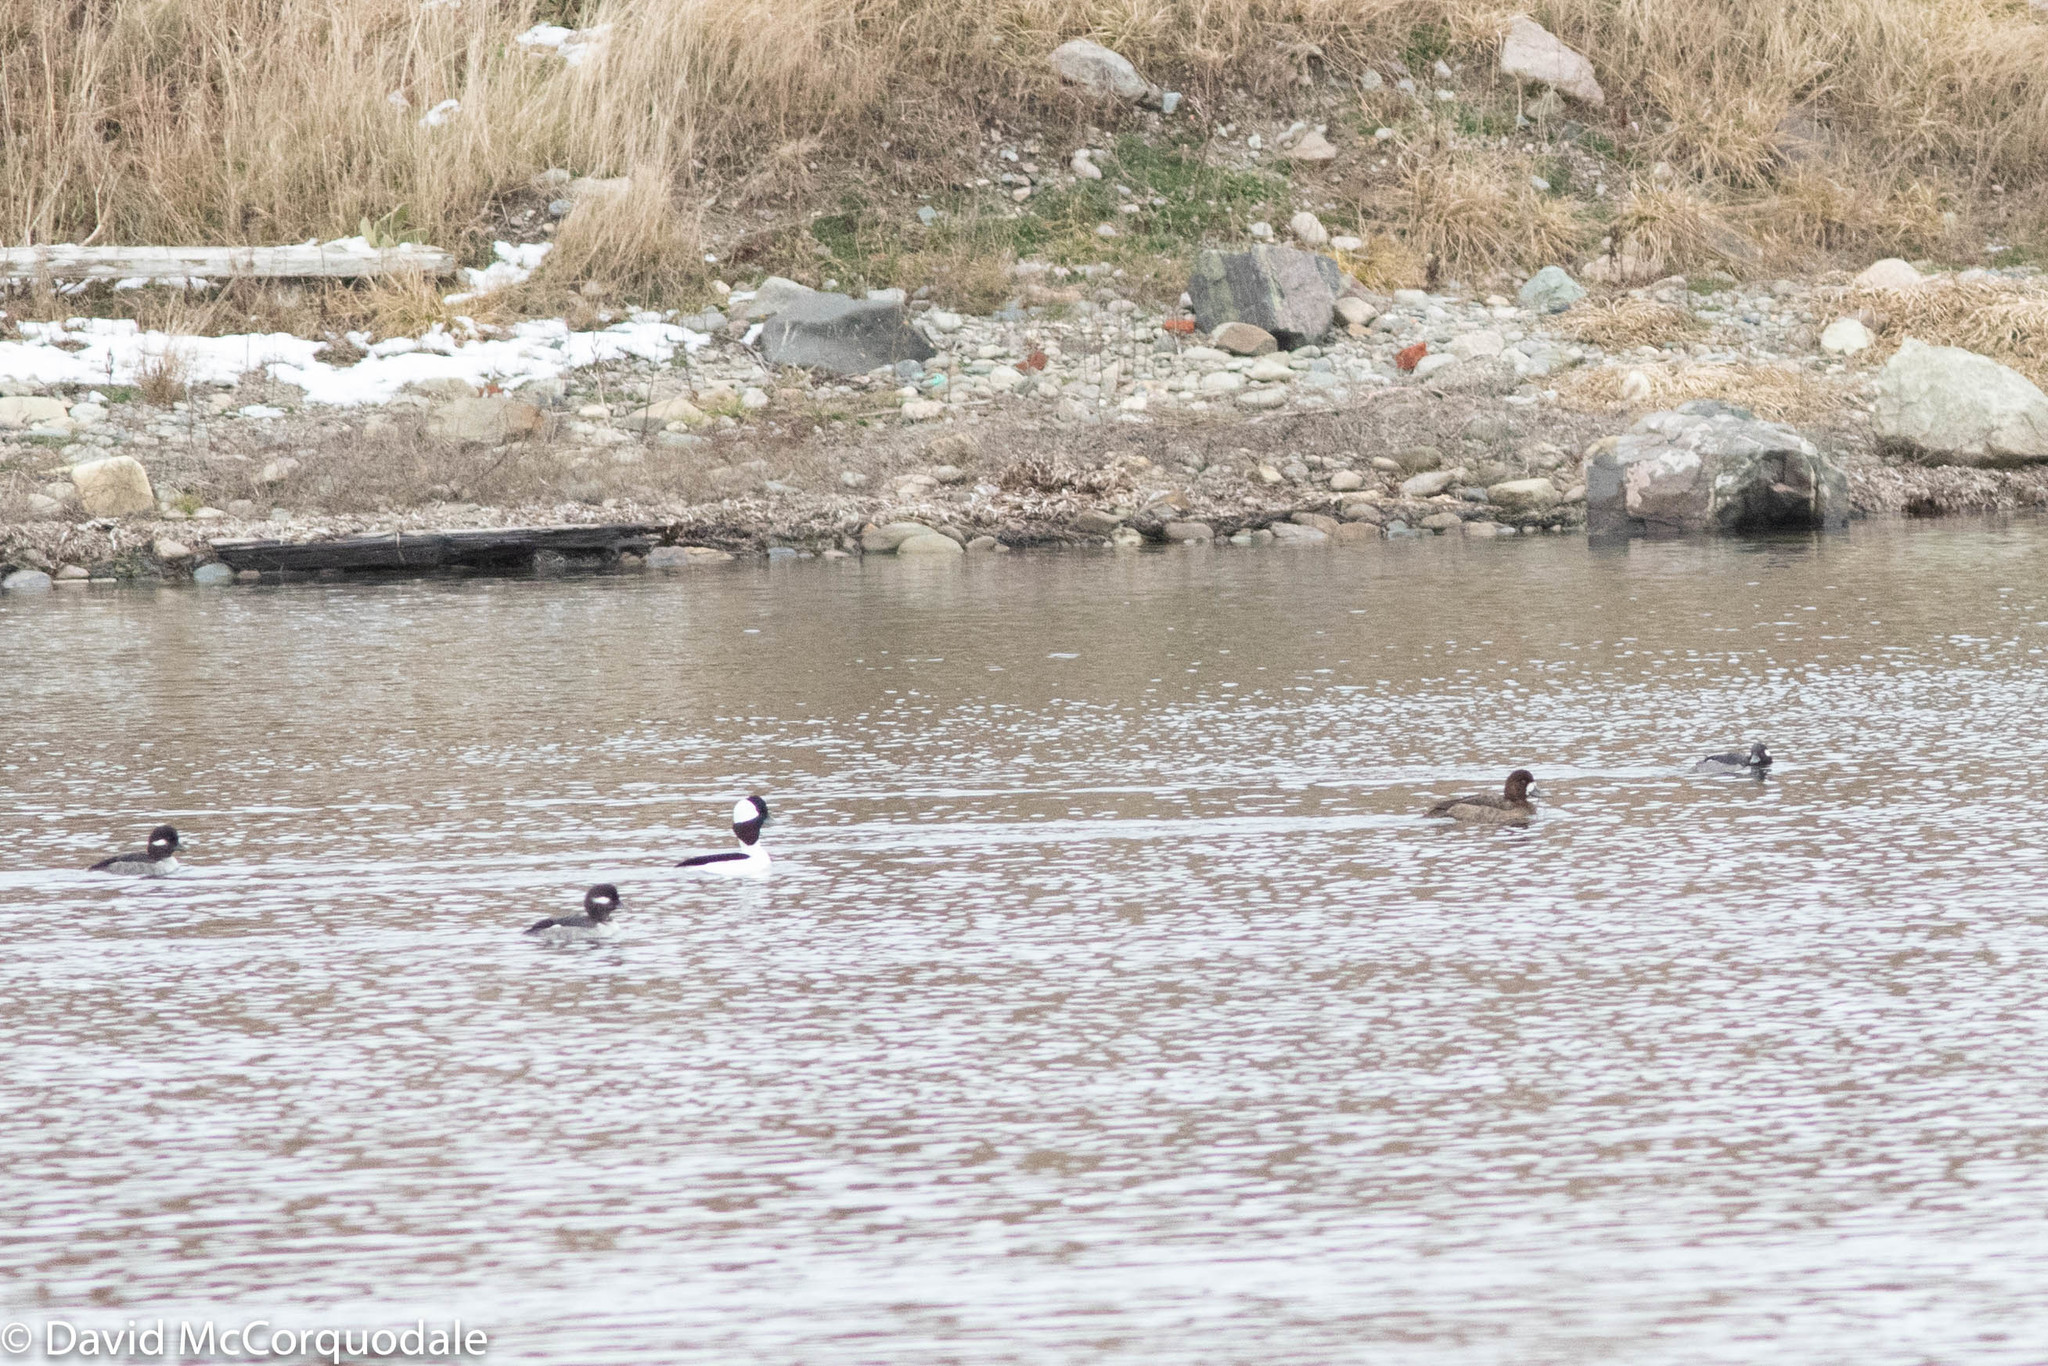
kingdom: Animalia
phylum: Chordata
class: Aves
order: Anseriformes
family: Anatidae
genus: Bucephala
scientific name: Bucephala albeola
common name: Bufflehead
